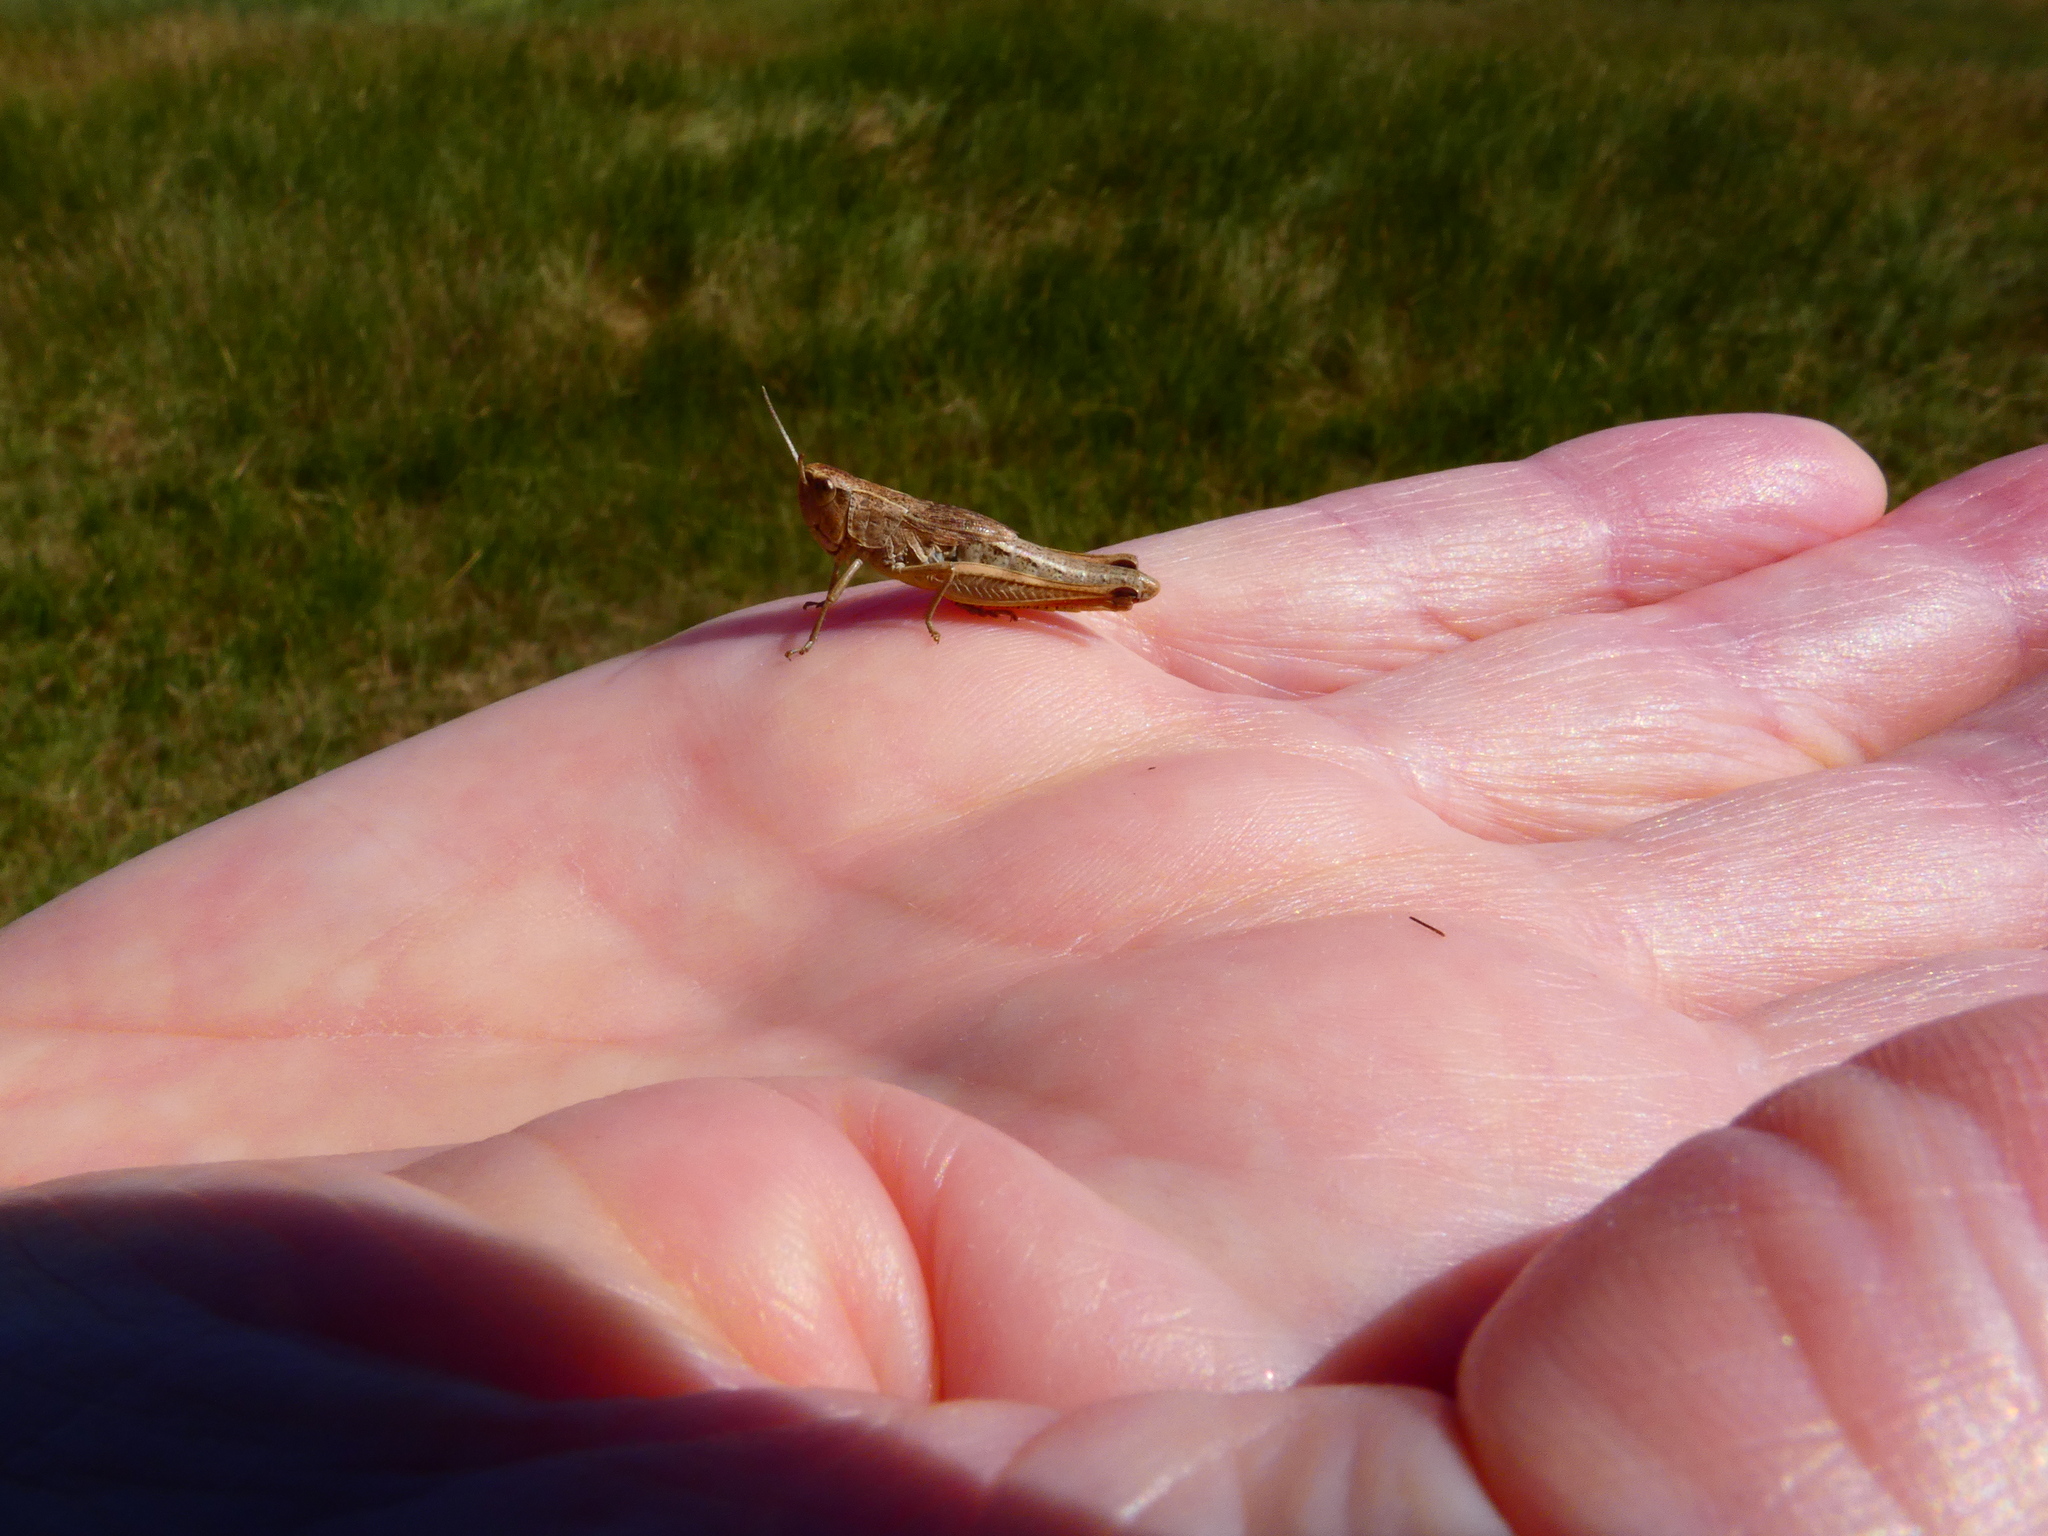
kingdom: Animalia
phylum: Arthropoda
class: Insecta
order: Orthoptera
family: Acrididae
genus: Pseudochorthippus
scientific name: Pseudochorthippus parallelus
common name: Meadow grasshopper
